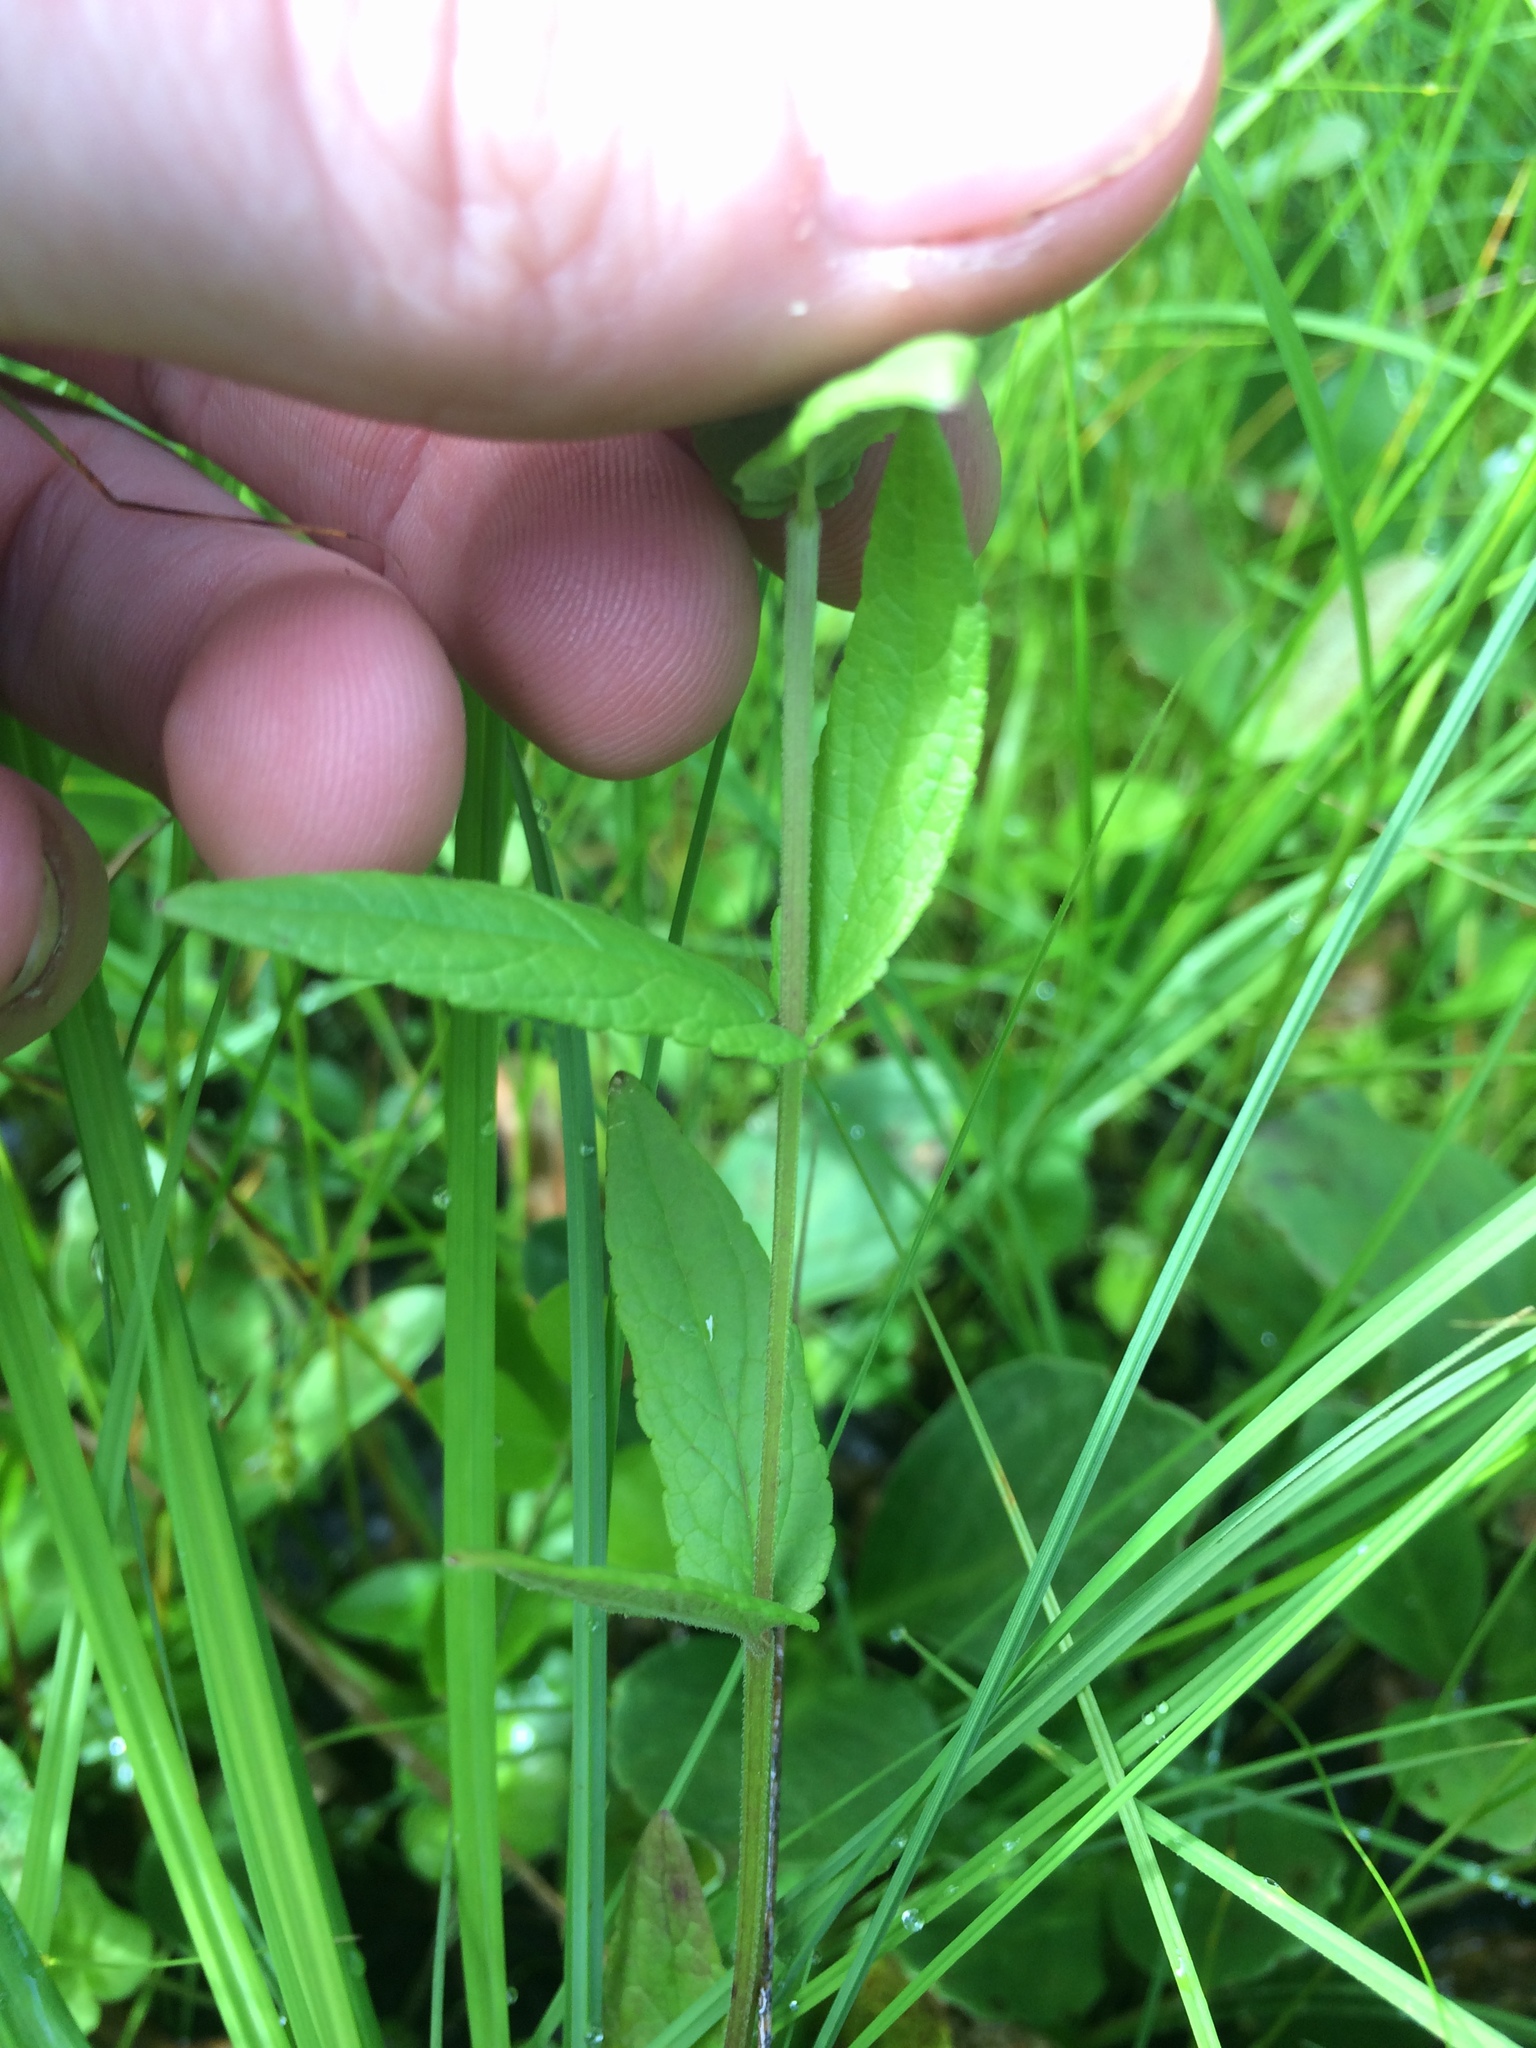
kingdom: Plantae
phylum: Tracheophyta
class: Magnoliopsida
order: Lamiales
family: Lamiaceae
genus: Scutellaria
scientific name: Scutellaria galericulata
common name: Skullcap
